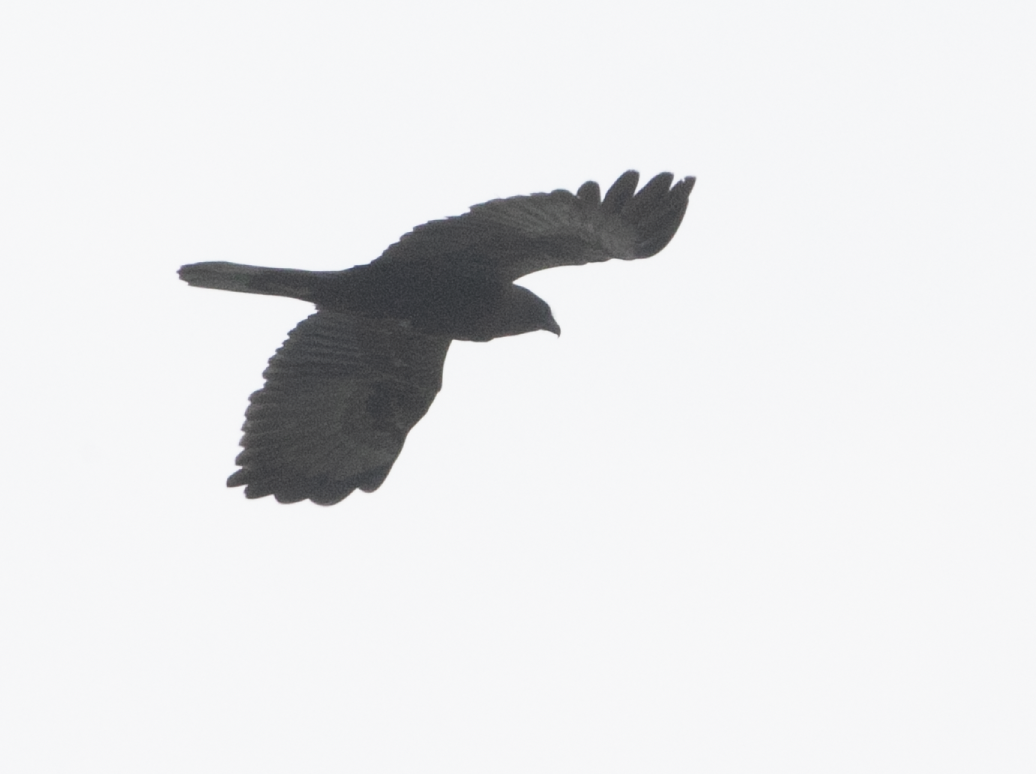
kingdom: Animalia
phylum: Chordata
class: Aves
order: Accipitriformes
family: Accipitridae
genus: Circus
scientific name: Circus aeruginosus
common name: Western marsh harrier
